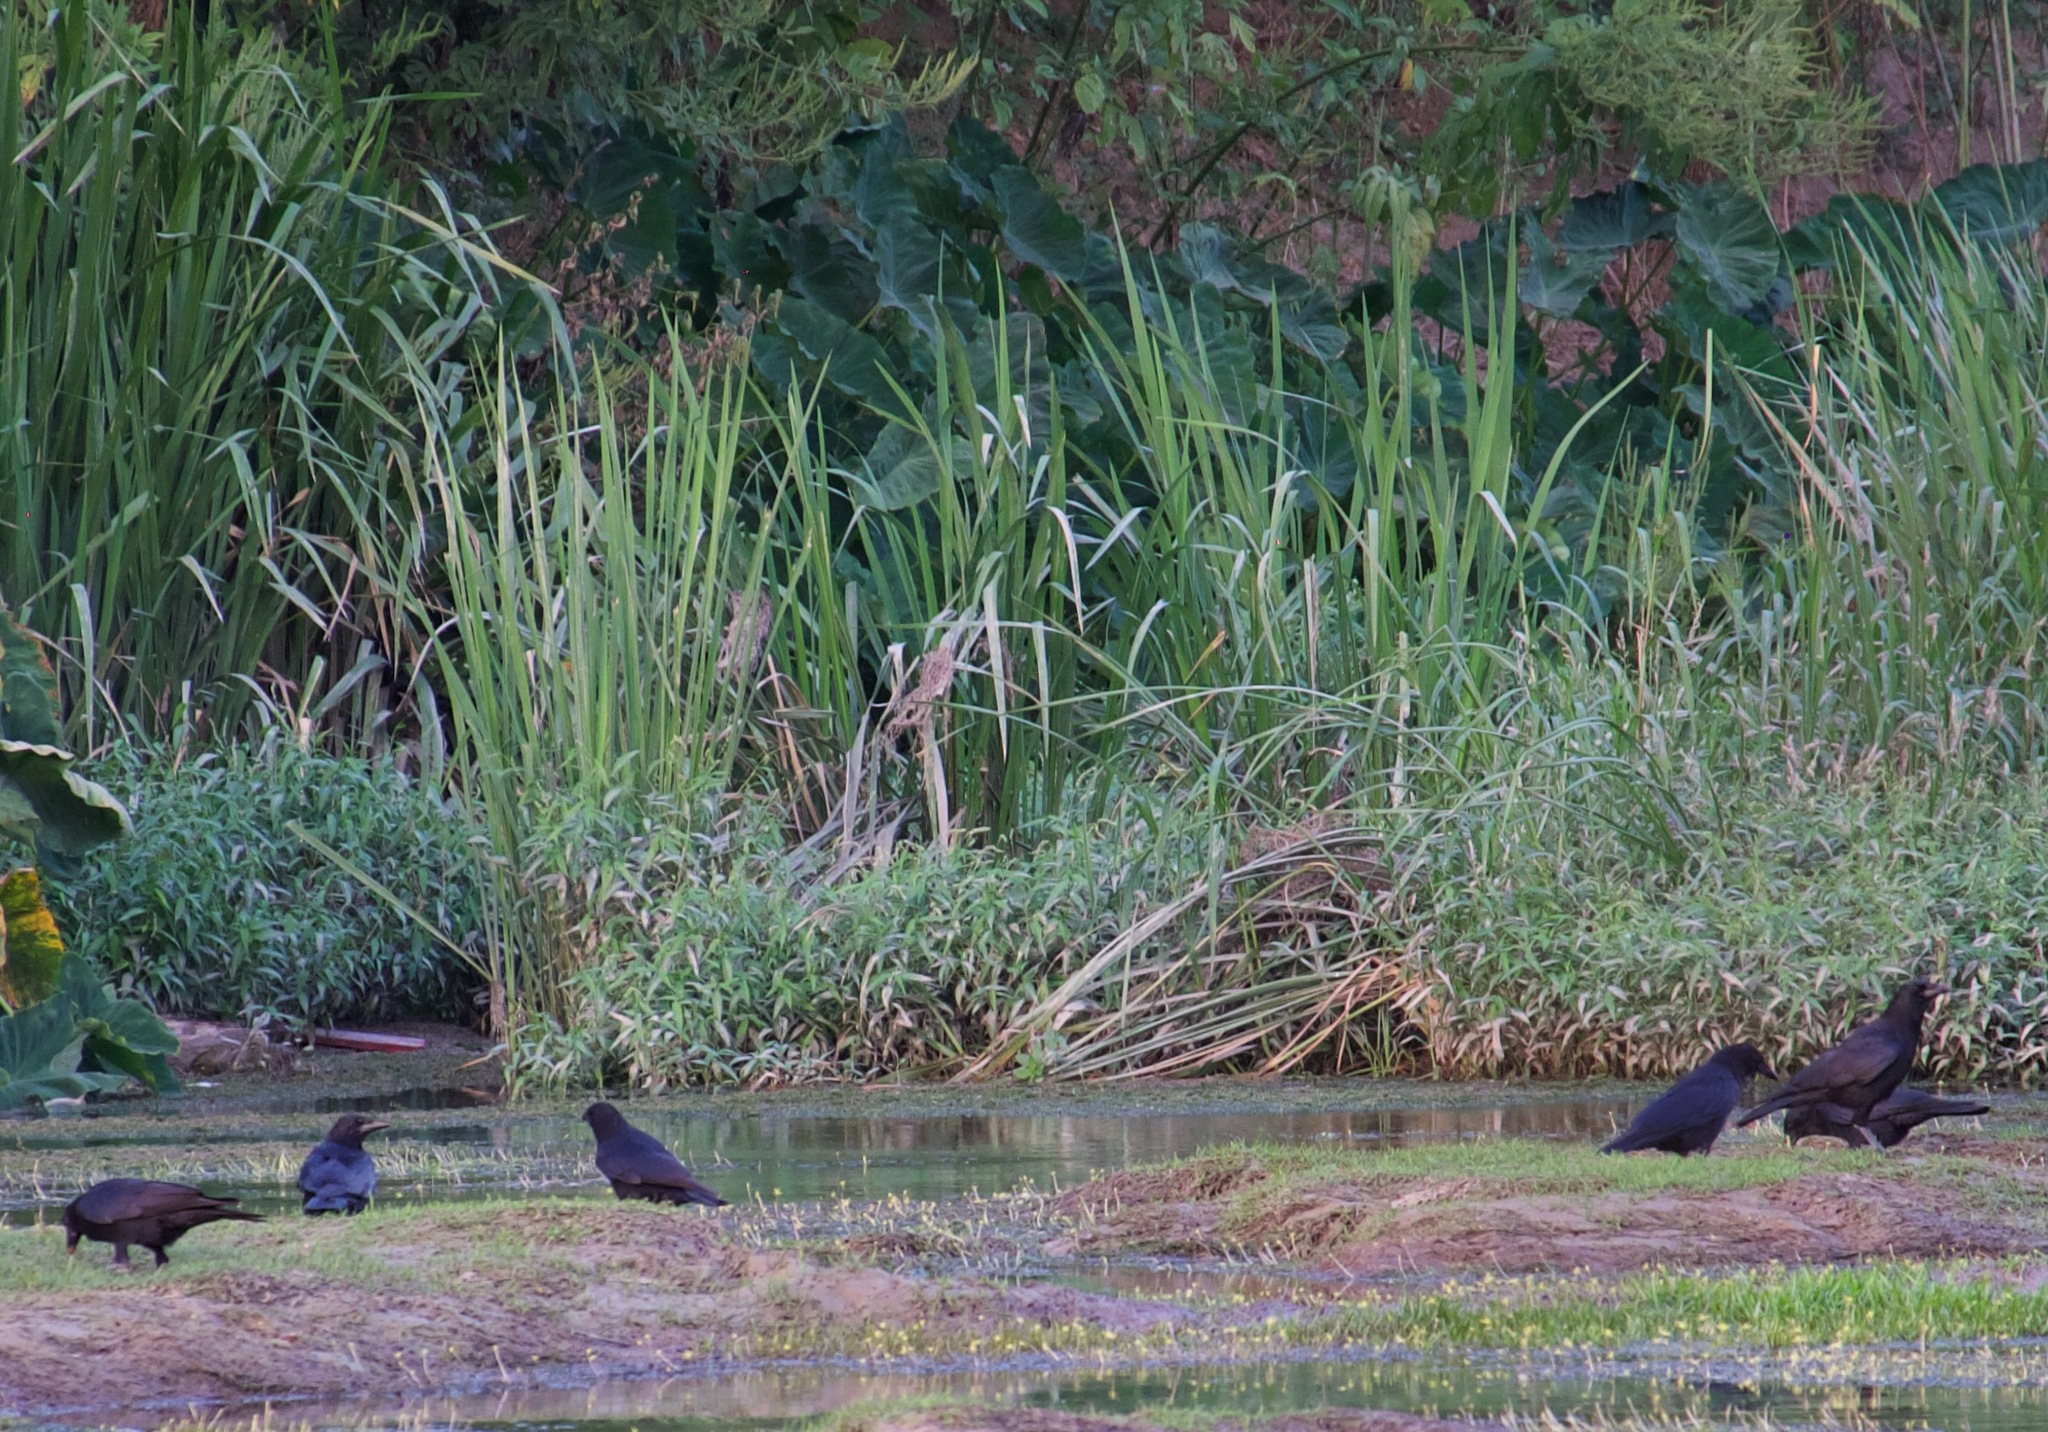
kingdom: Animalia
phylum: Chordata
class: Aves
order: Passeriformes
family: Corvidae
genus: Corvus
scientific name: Corvus brachyrhynchos
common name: American crow
